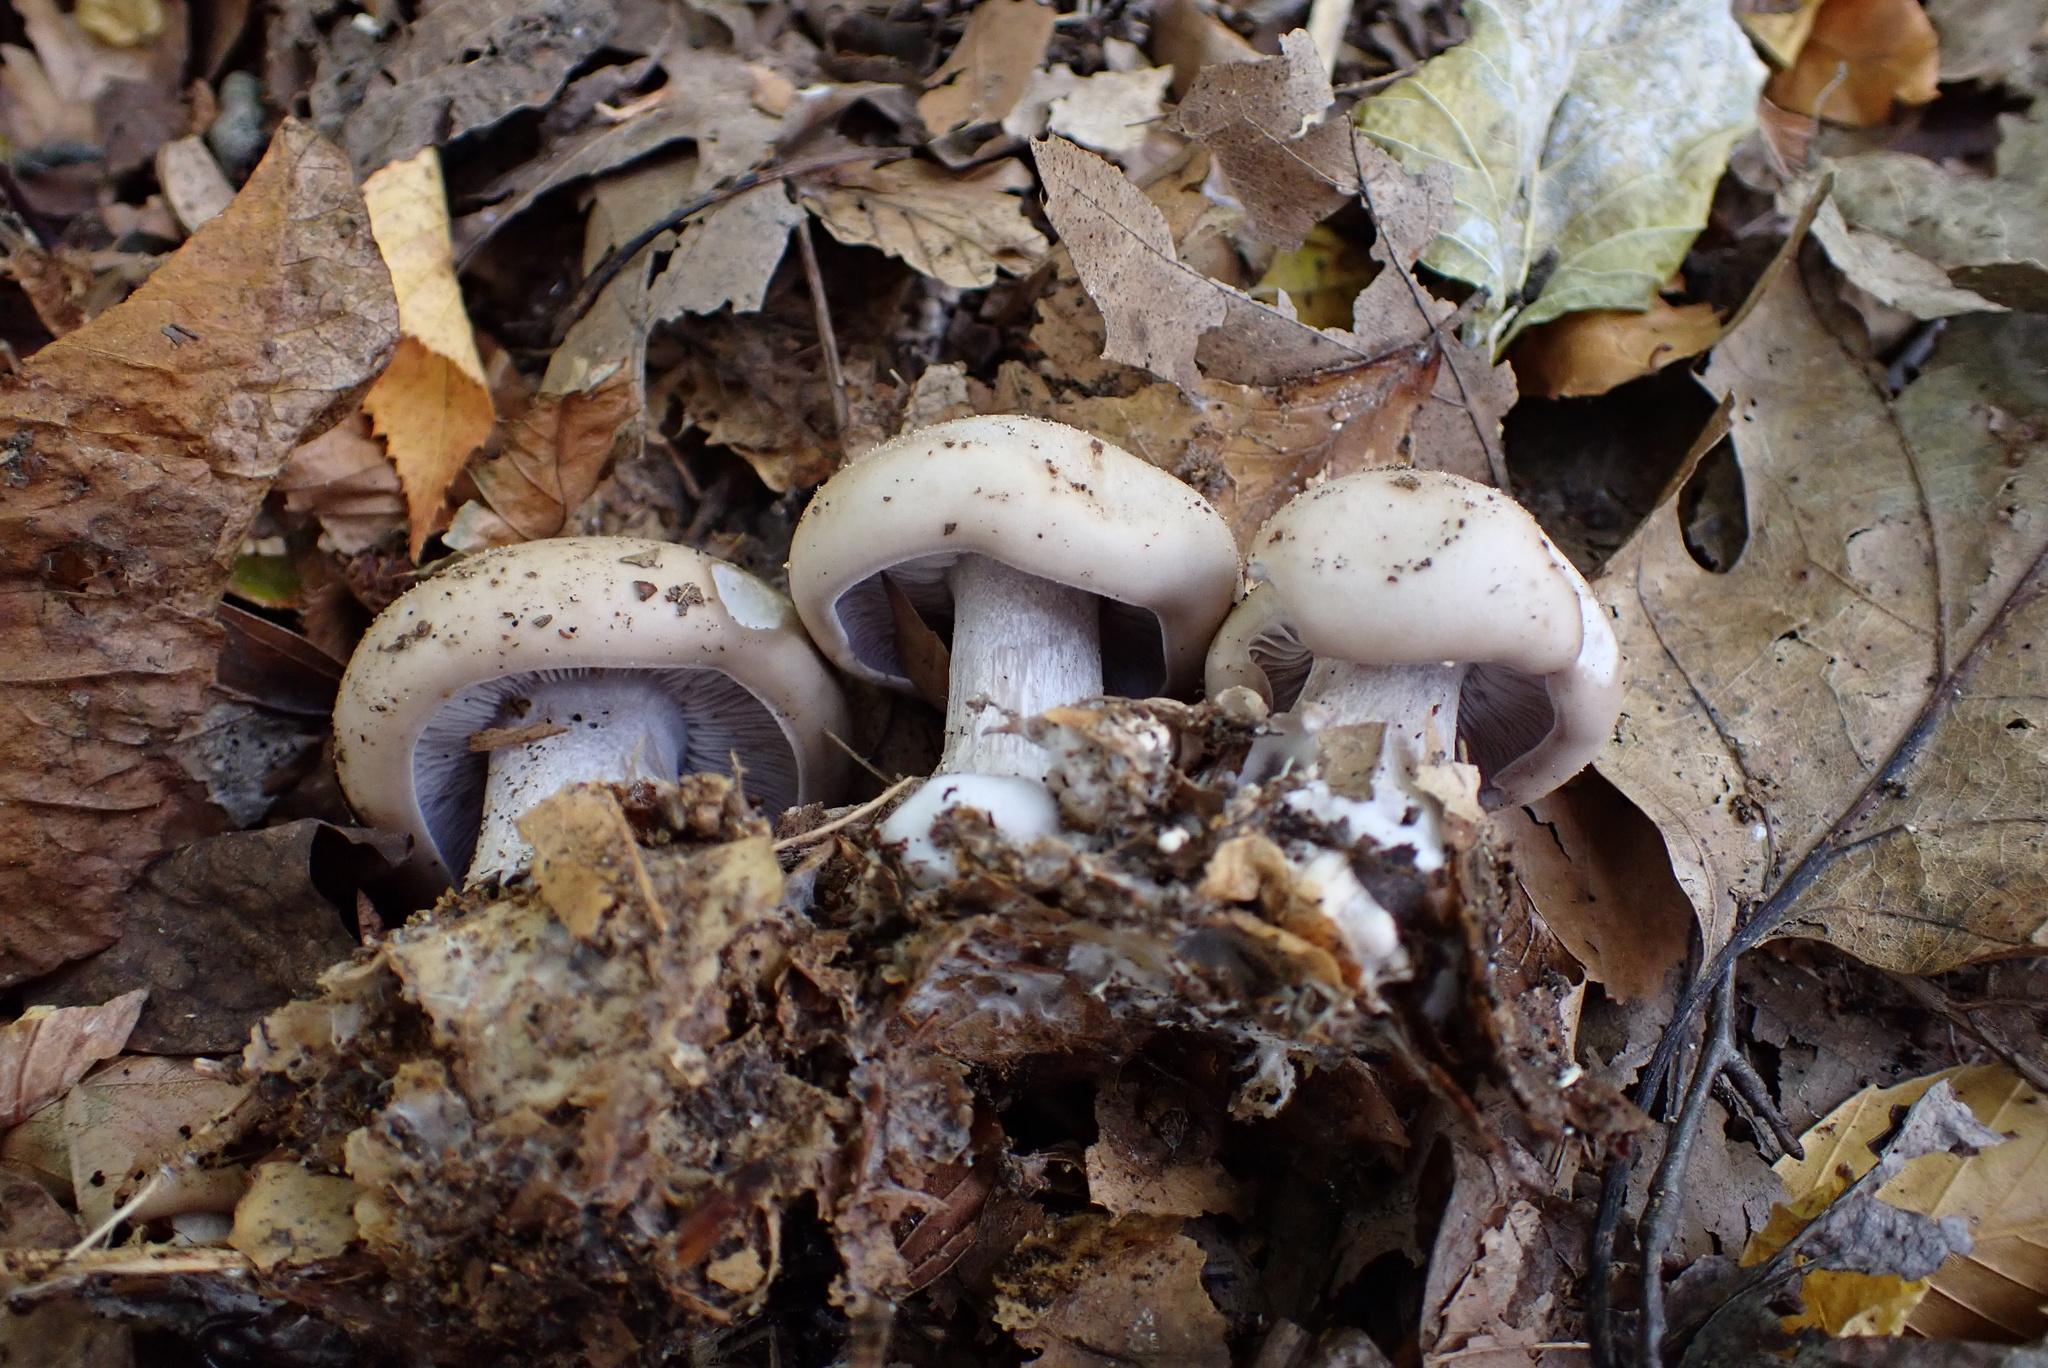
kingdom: Fungi
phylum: Basidiomycota
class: Agaricomycetes
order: Agaricales
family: Tricholomataceae
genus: Collybia
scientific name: Collybia
